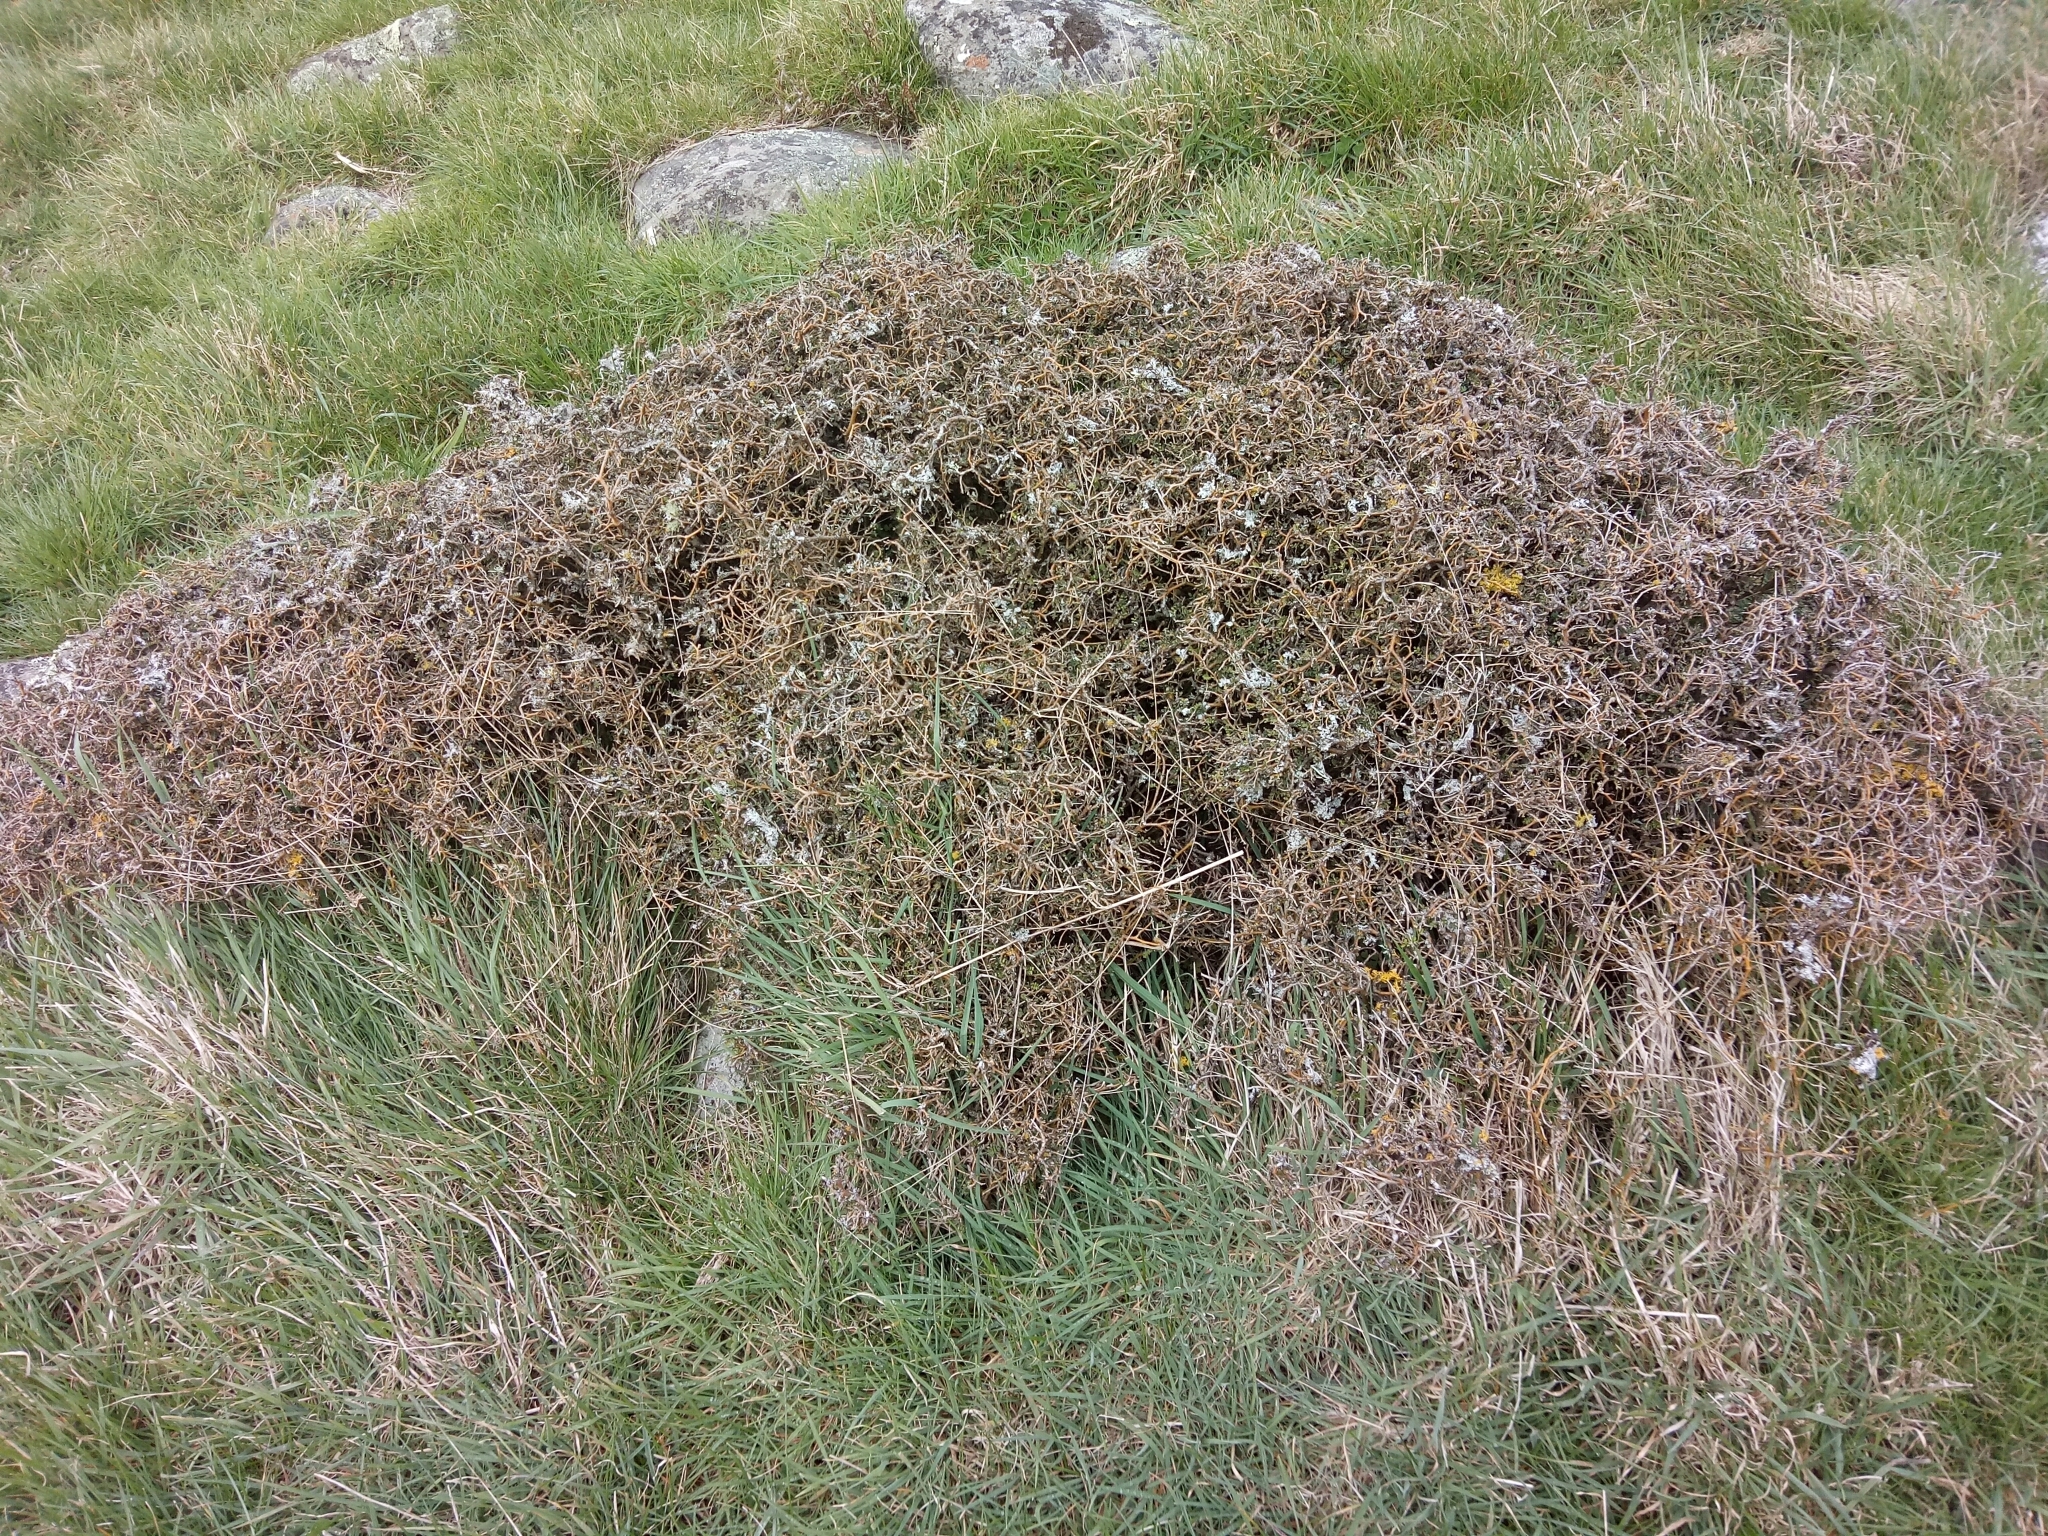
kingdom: Plantae
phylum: Tracheophyta
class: Magnoliopsida
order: Fabales
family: Fabaceae
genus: Sophora
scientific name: Sophora prostrata
